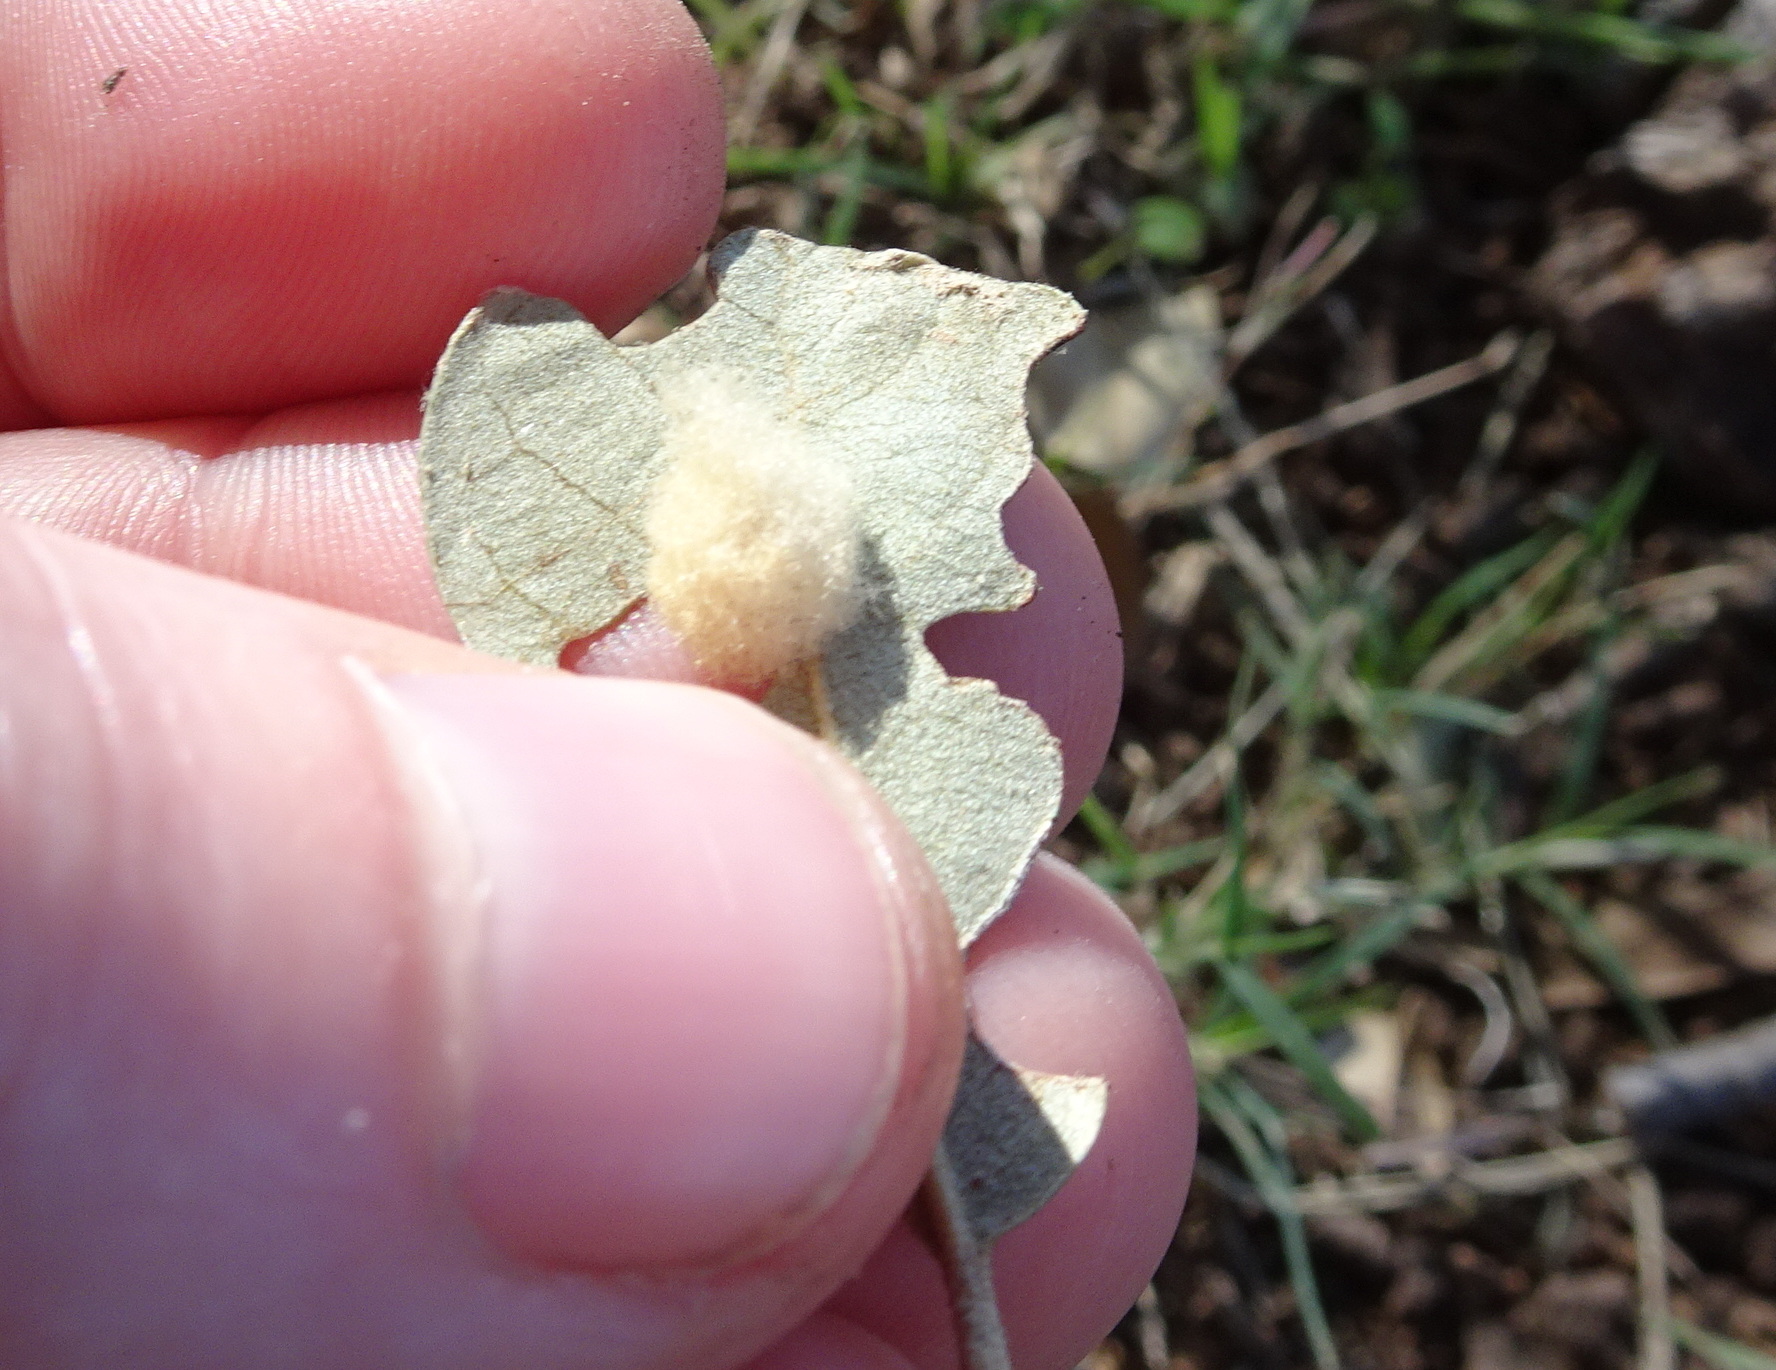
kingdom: Animalia
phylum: Arthropoda
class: Insecta
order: Hymenoptera
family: Cynipidae
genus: Andricus
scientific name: Andricus Druon quercuslanigerum
